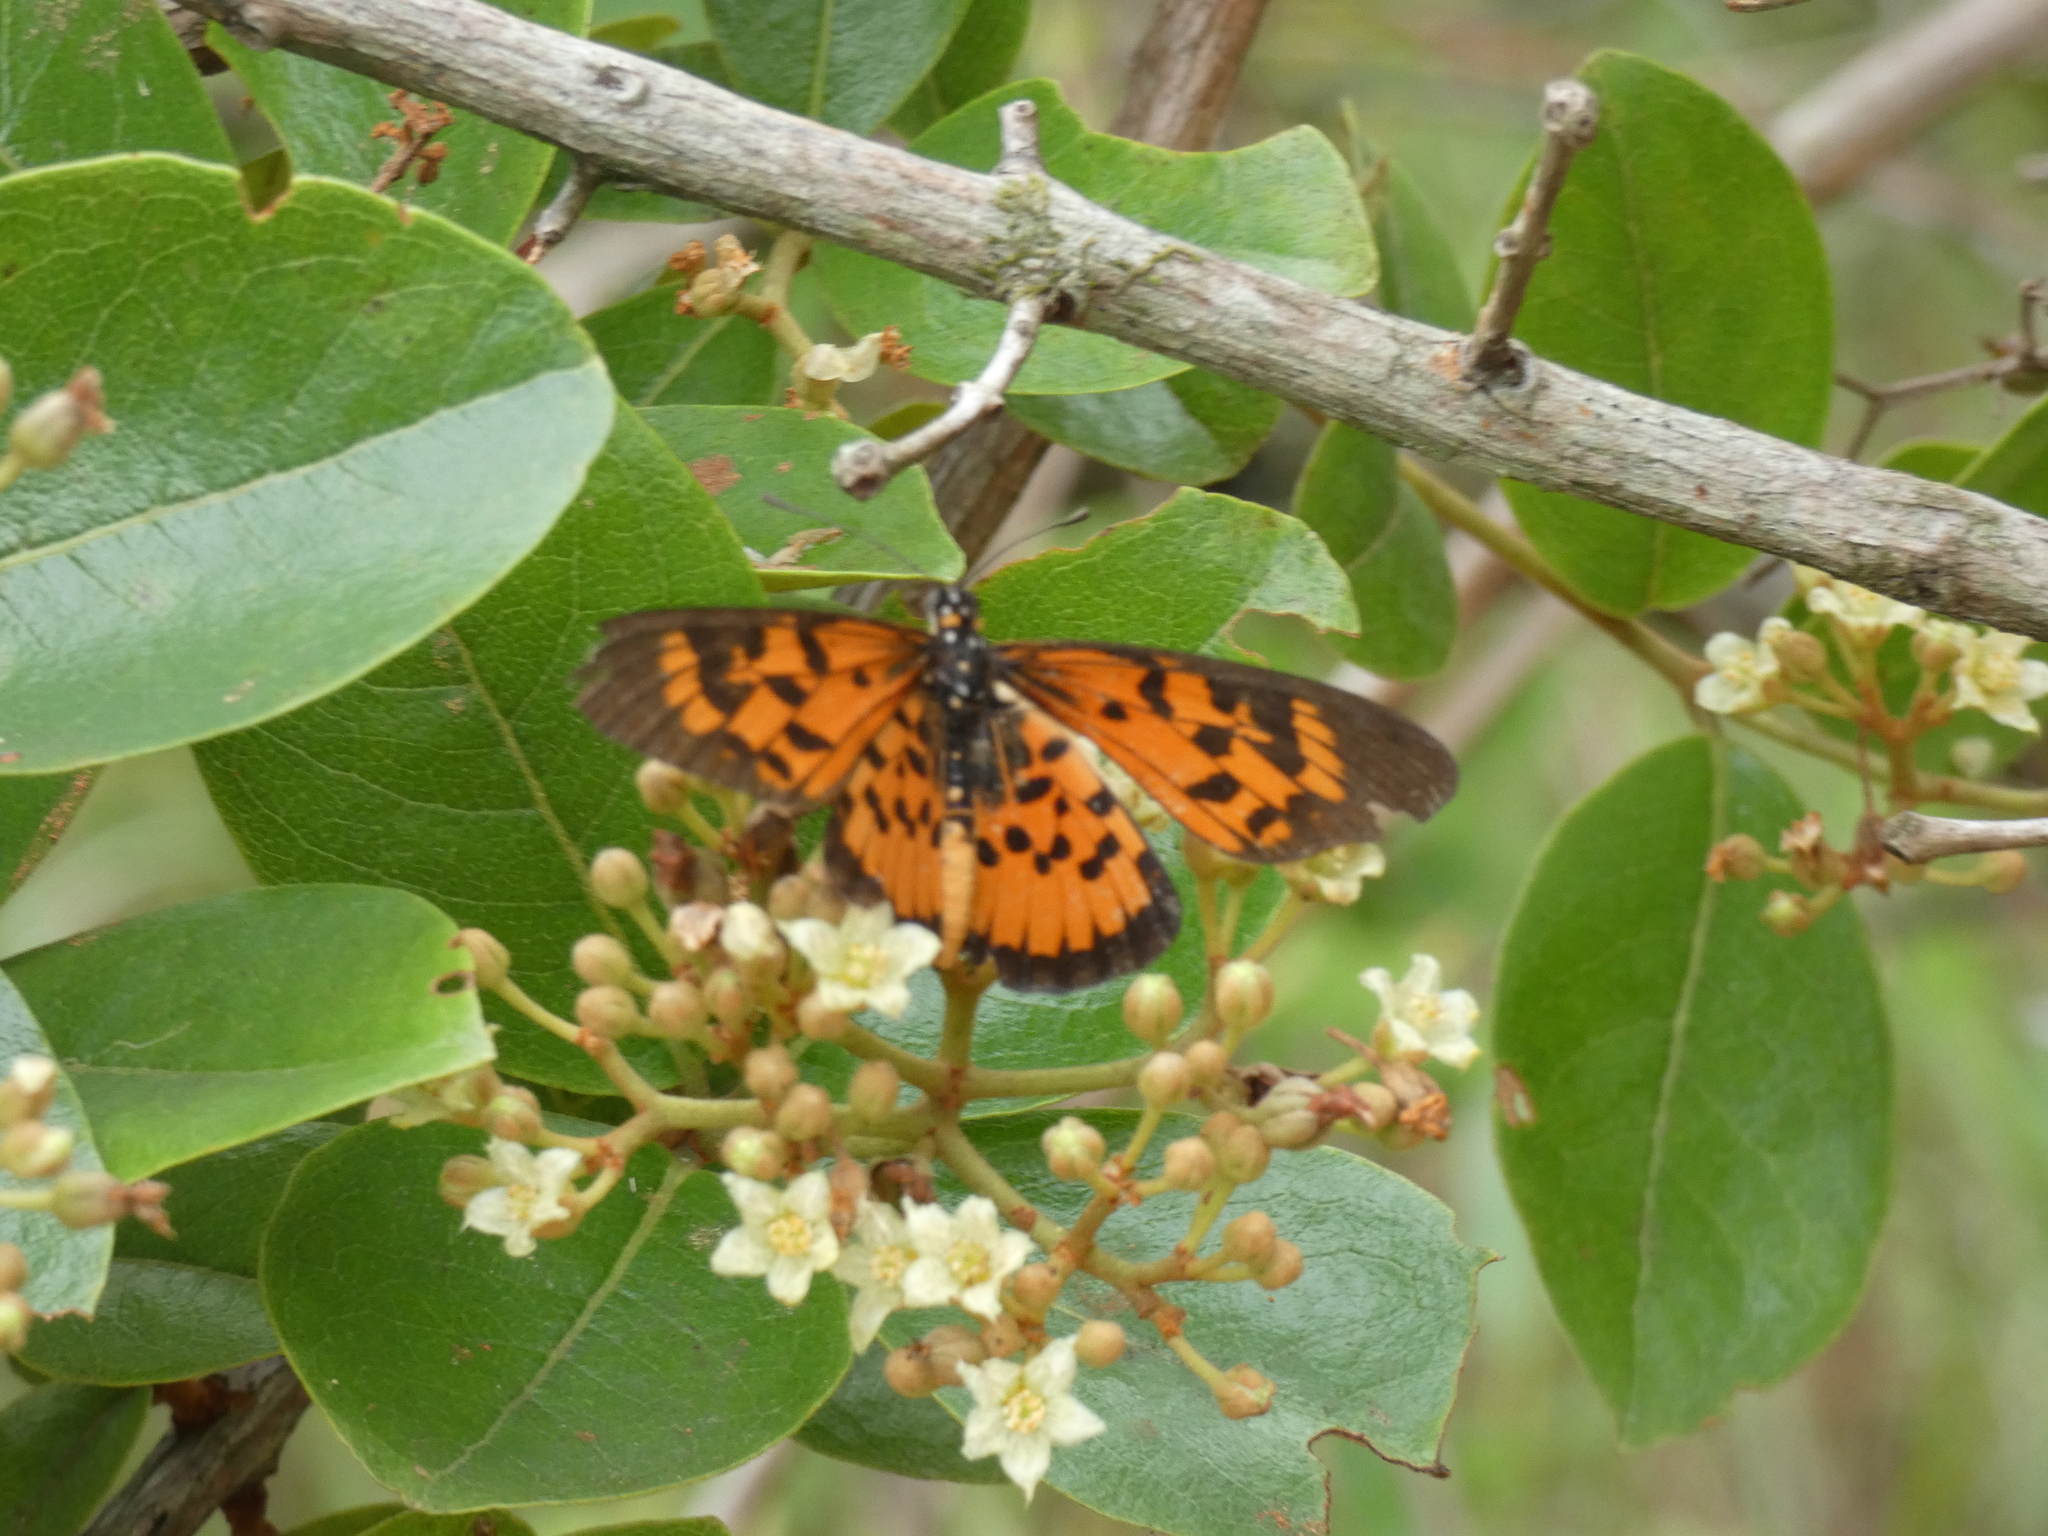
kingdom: Animalia
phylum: Arthropoda
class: Insecta
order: Lepidoptera
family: Nymphalidae
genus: Rubraea
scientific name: Rubraea
